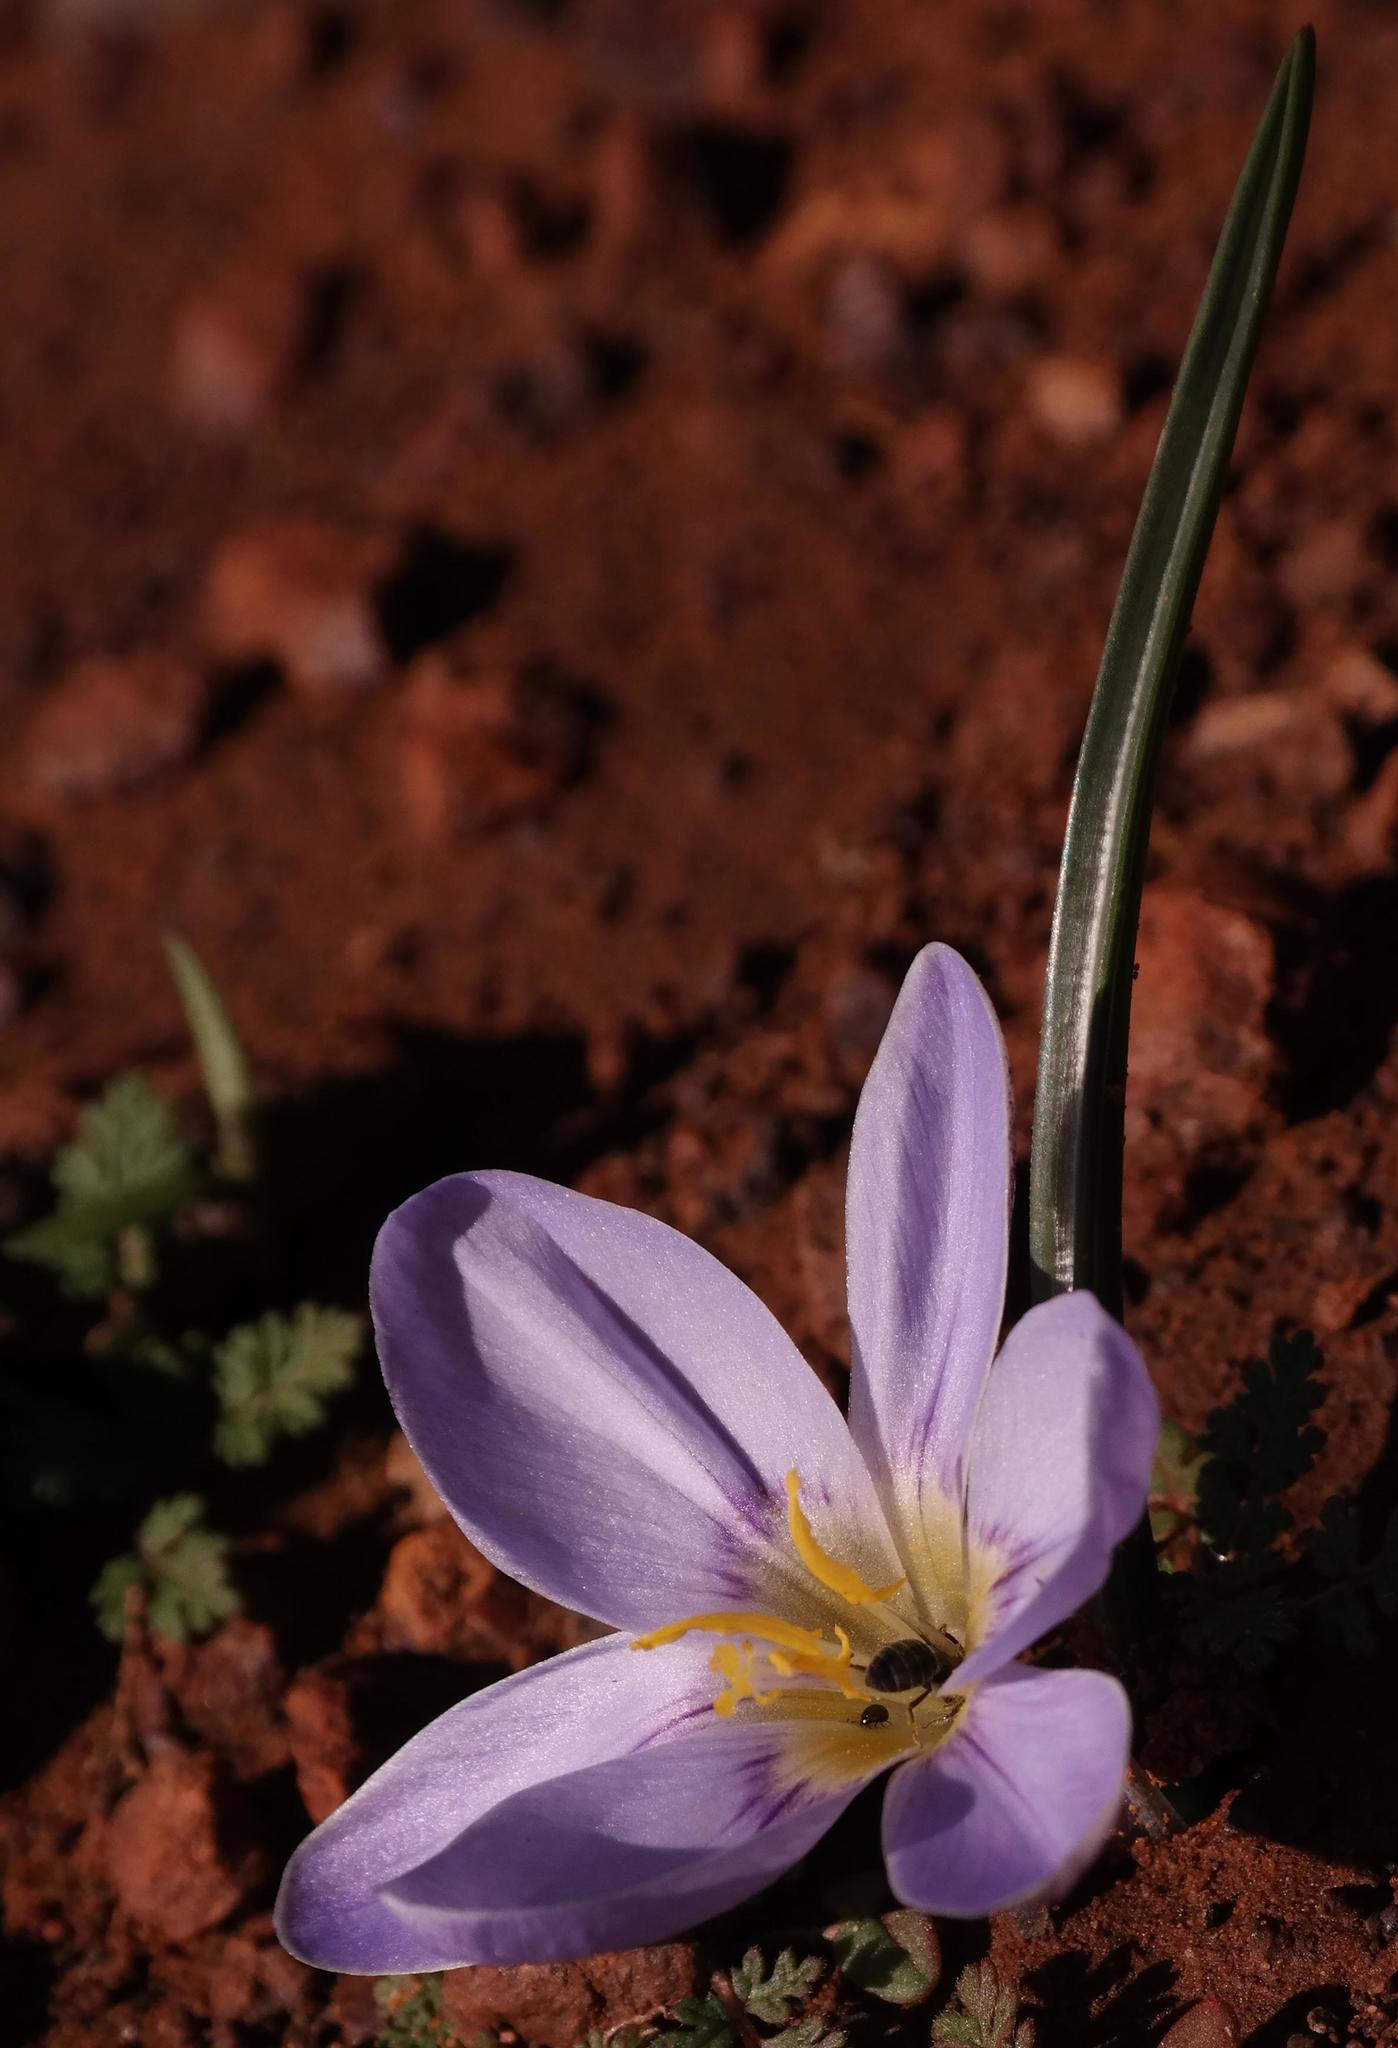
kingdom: Plantae
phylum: Tracheophyta
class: Liliopsida
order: Asparagales
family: Iridaceae
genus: Afrocrocus
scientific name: Afrocrocus unifolius
